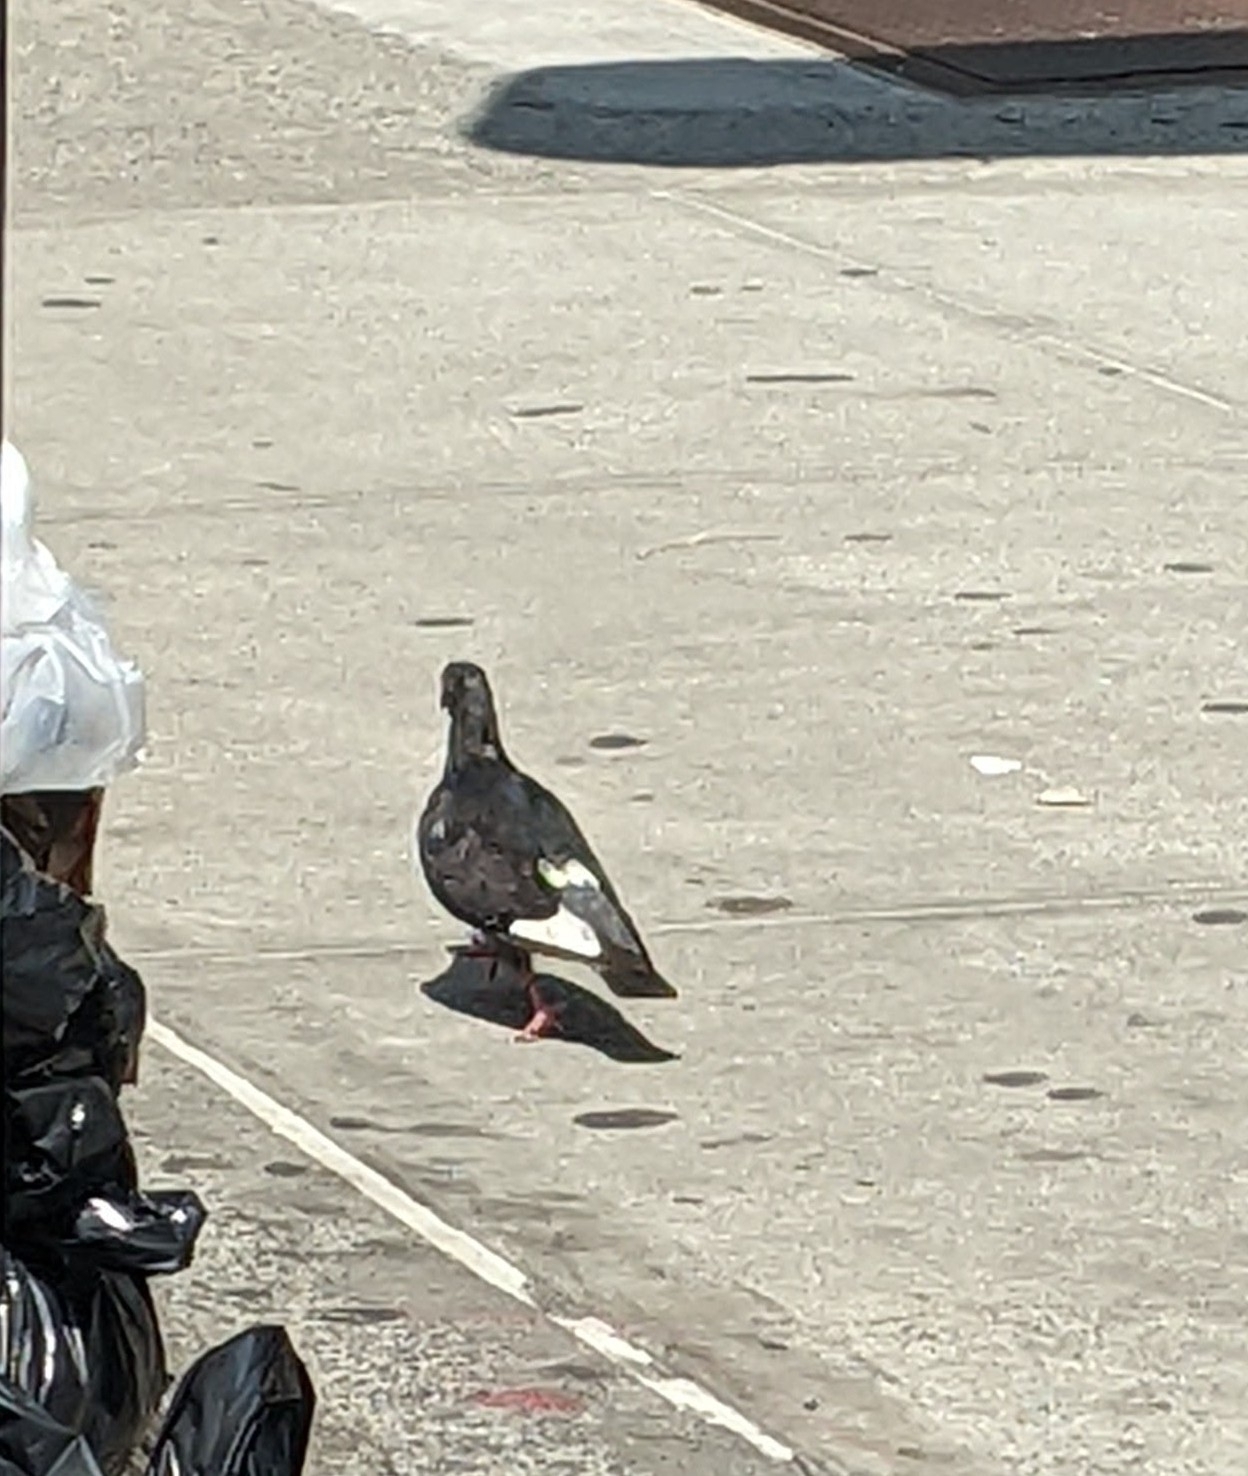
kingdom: Animalia
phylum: Chordata
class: Aves
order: Columbiformes
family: Columbidae
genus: Columba
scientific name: Columba livia
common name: Rock pigeon
